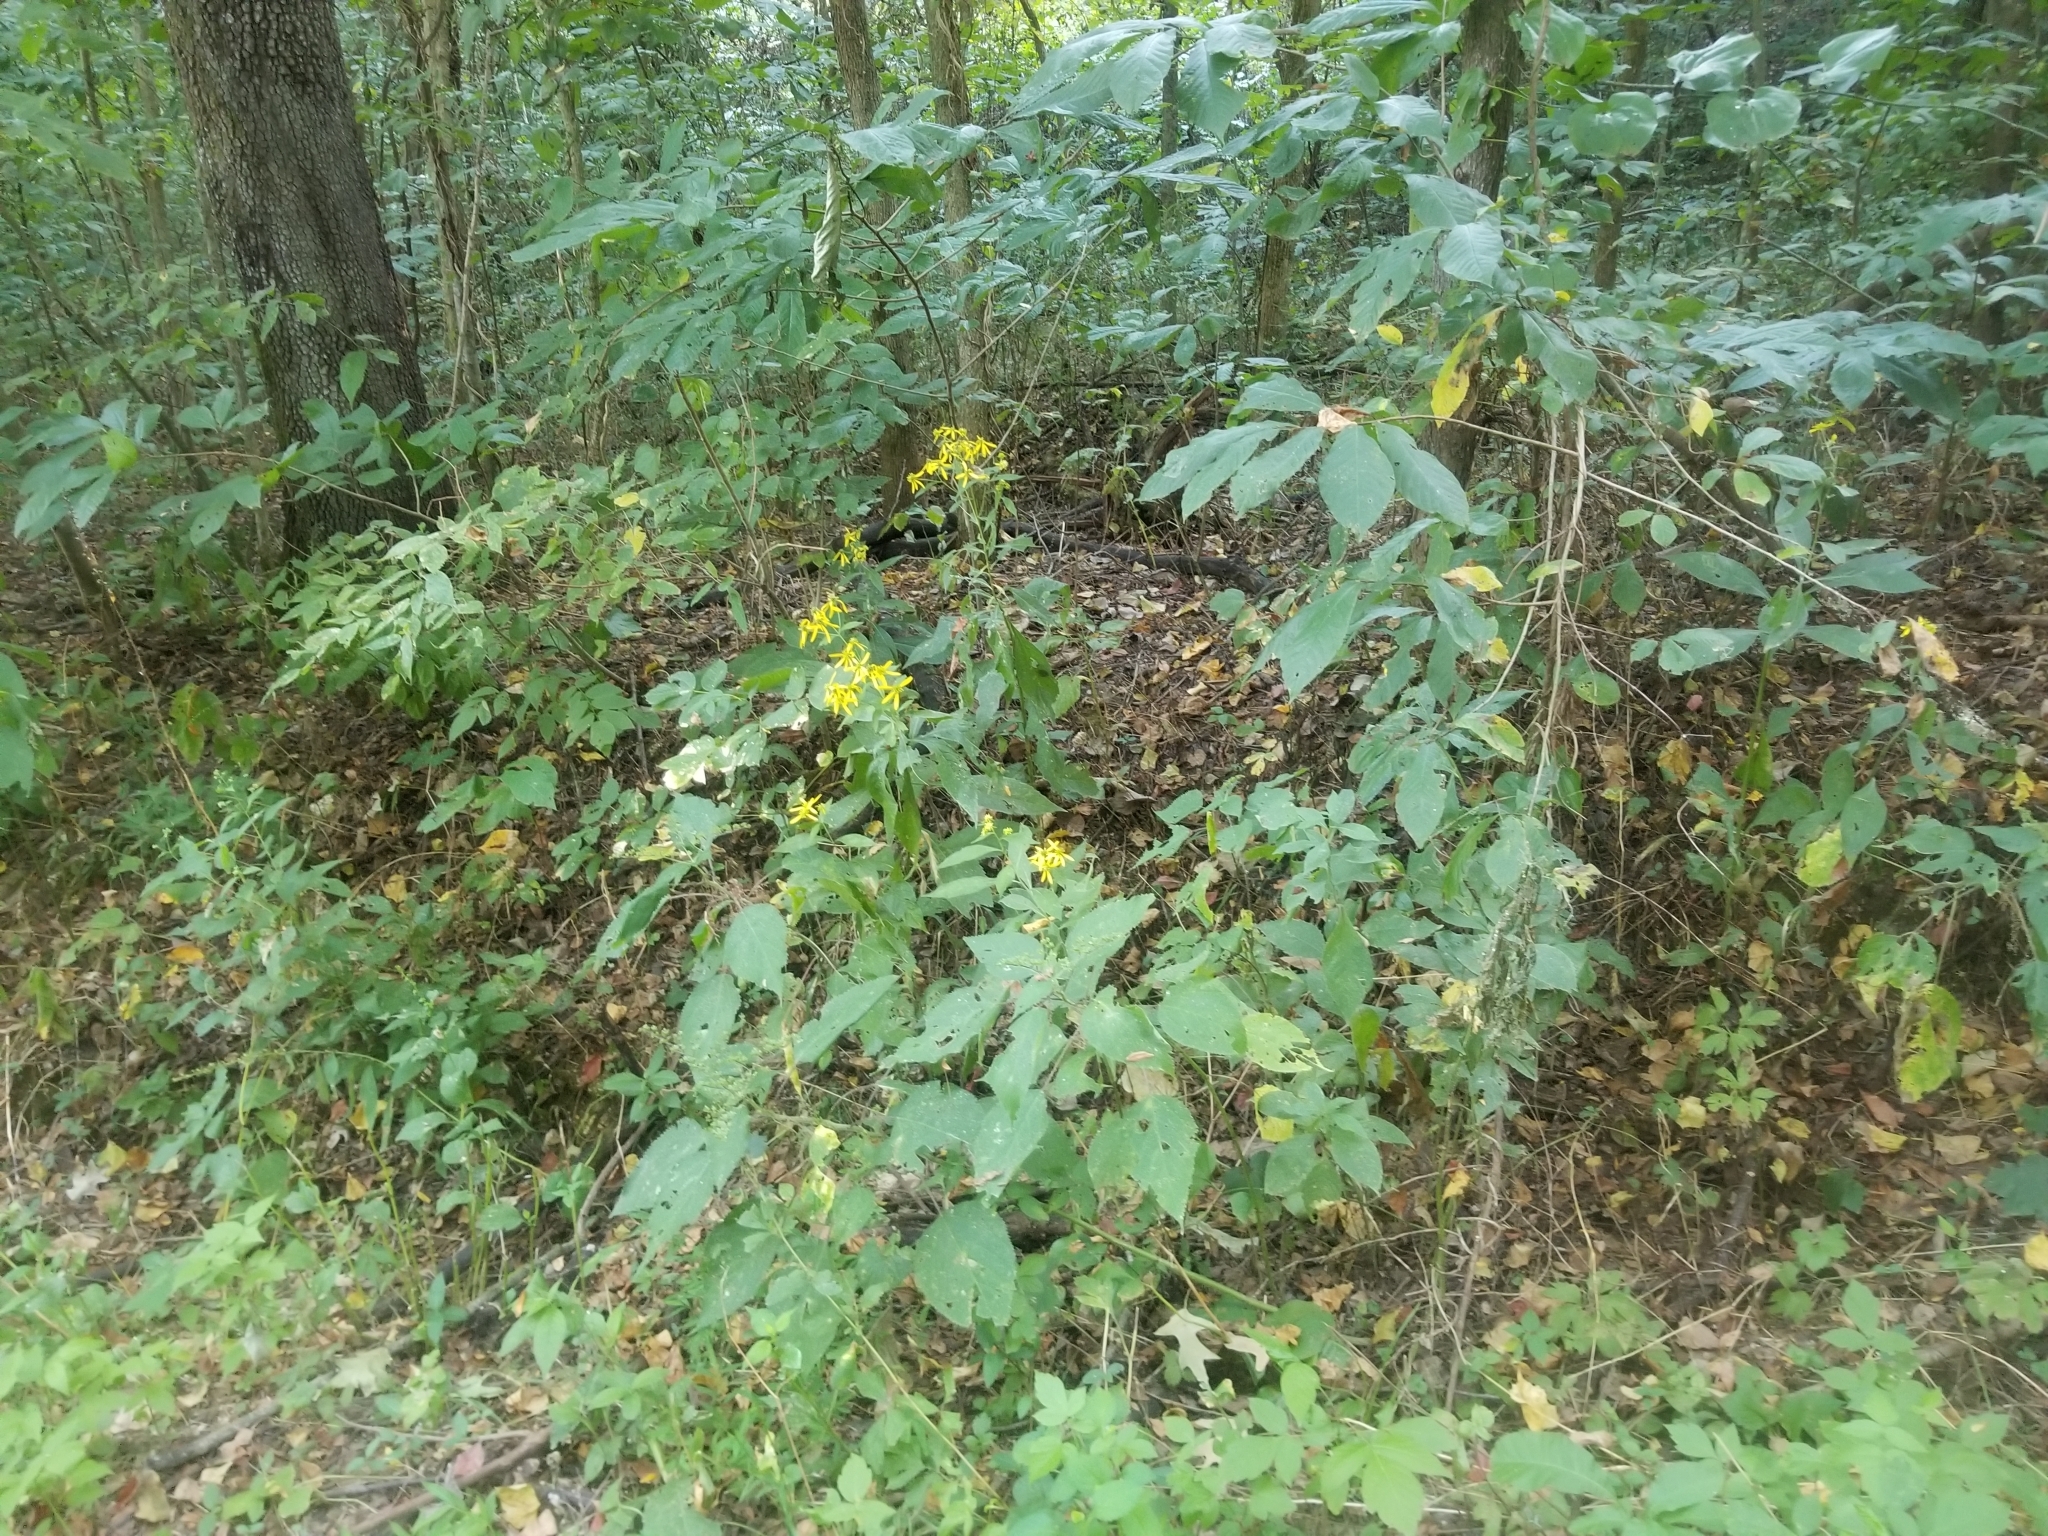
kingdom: Plantae
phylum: Tracheophyta
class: Magnoliopsida
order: Asterales
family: Asteraceae
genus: Verbesina
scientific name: Verbesina alternifolia
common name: Wingstem
